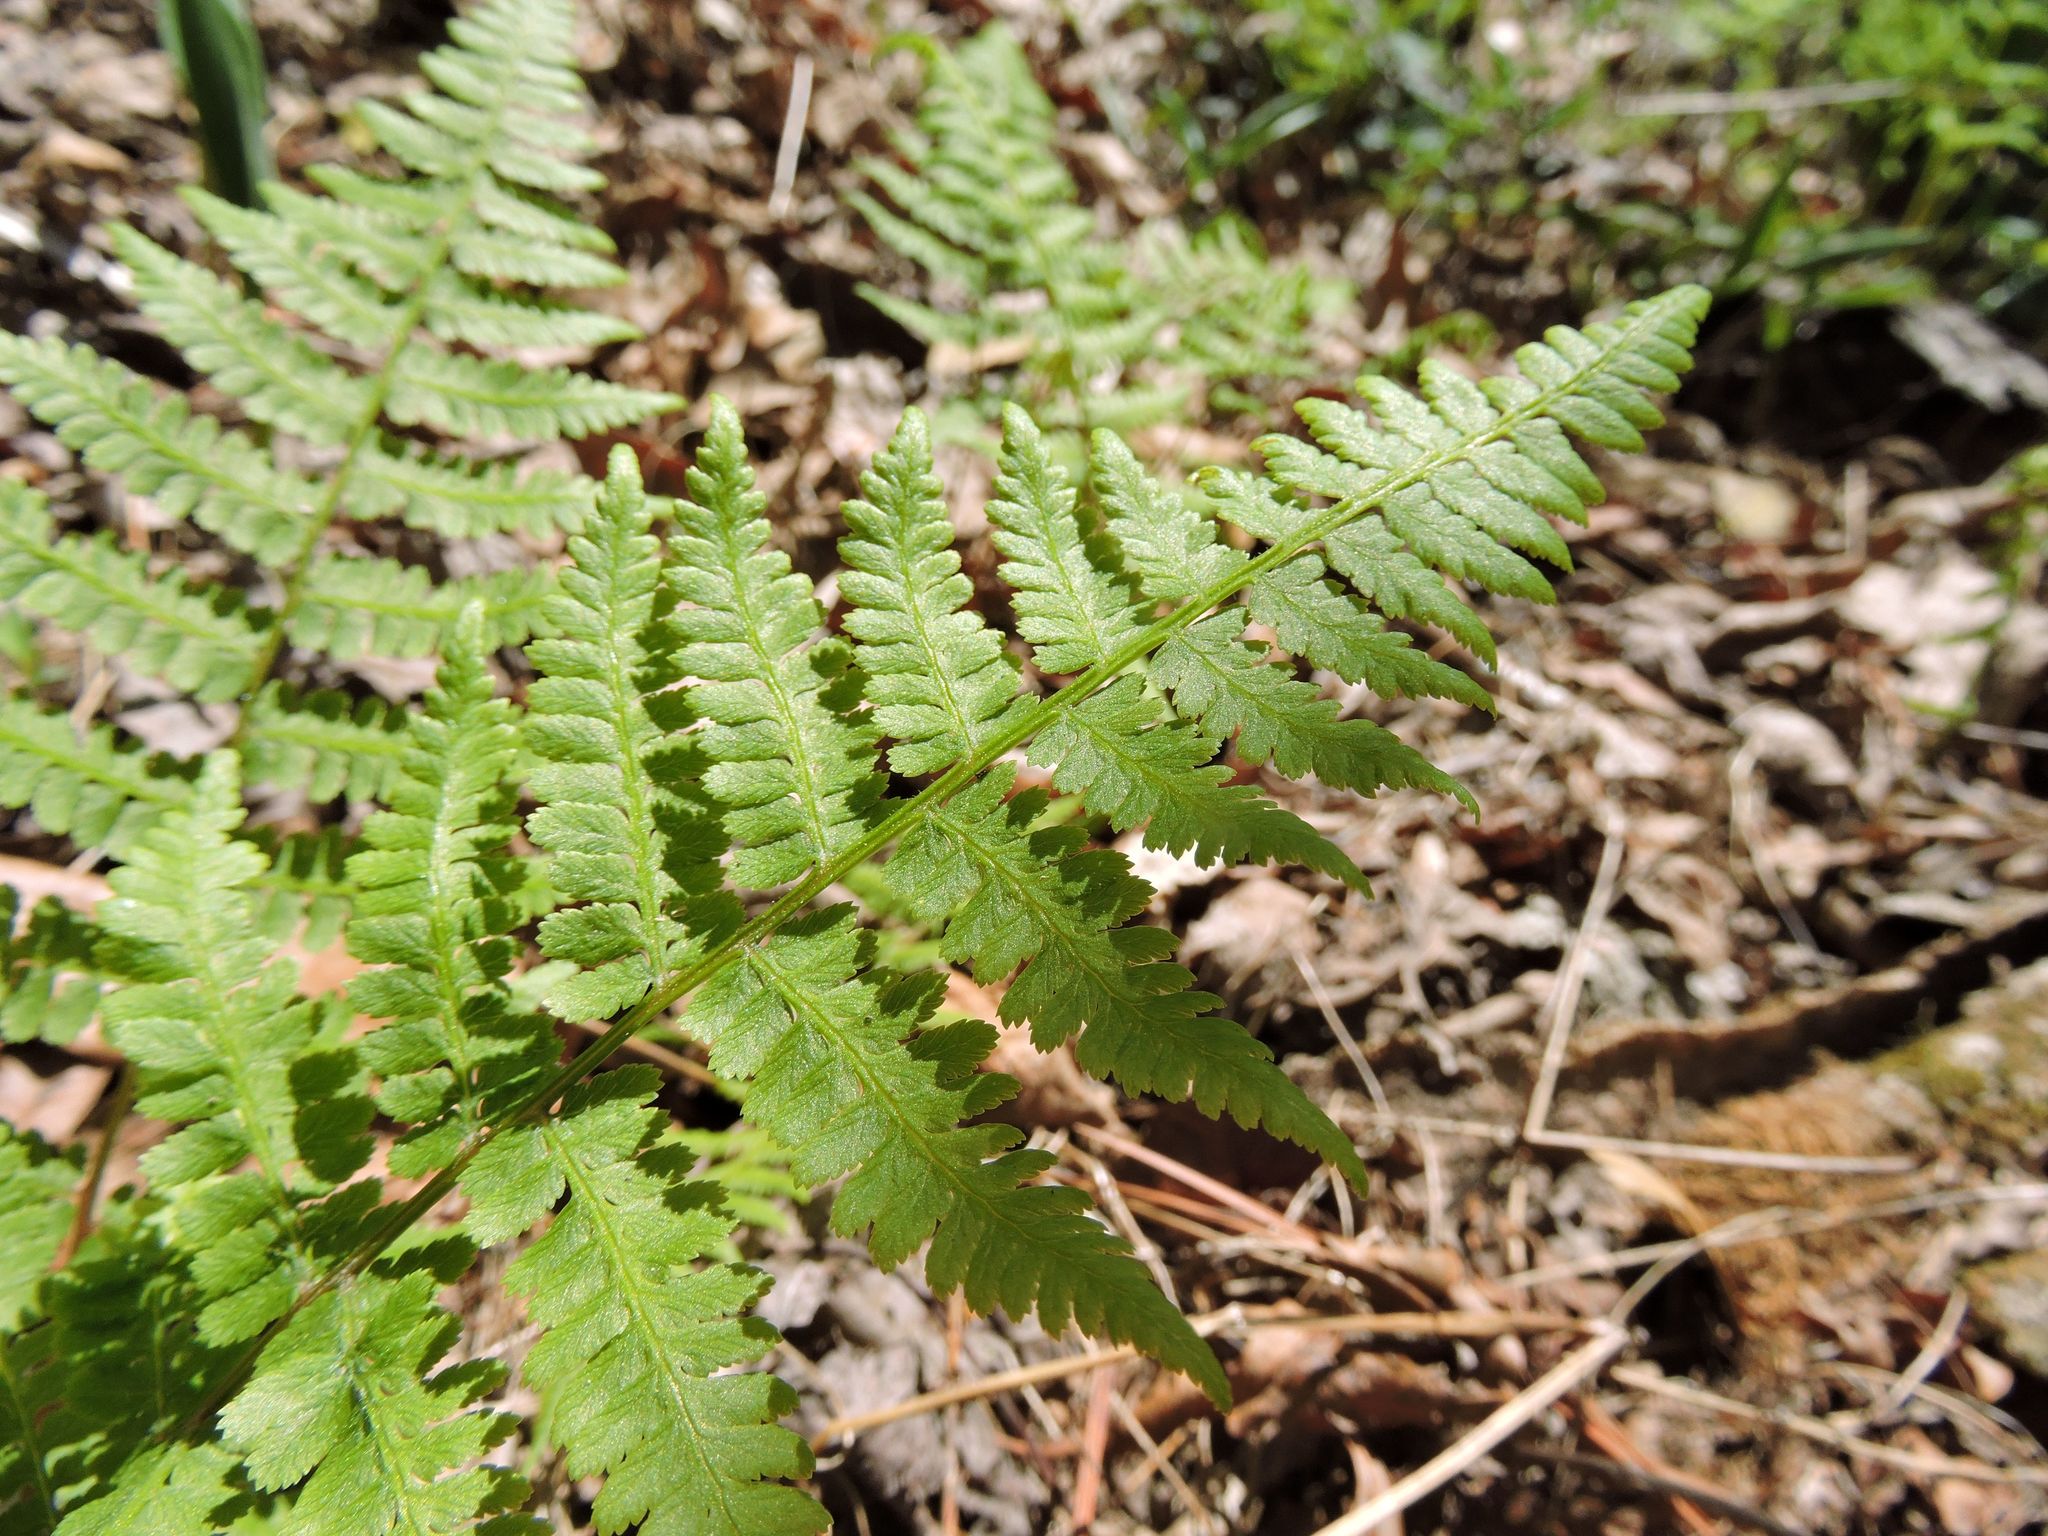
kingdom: Plantae
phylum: Tracheophyta
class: Polypodiopsida
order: Polypodiales
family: Athyriaceae
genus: Athyrium
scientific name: Athyrium asplenioides
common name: Southern lady fern
